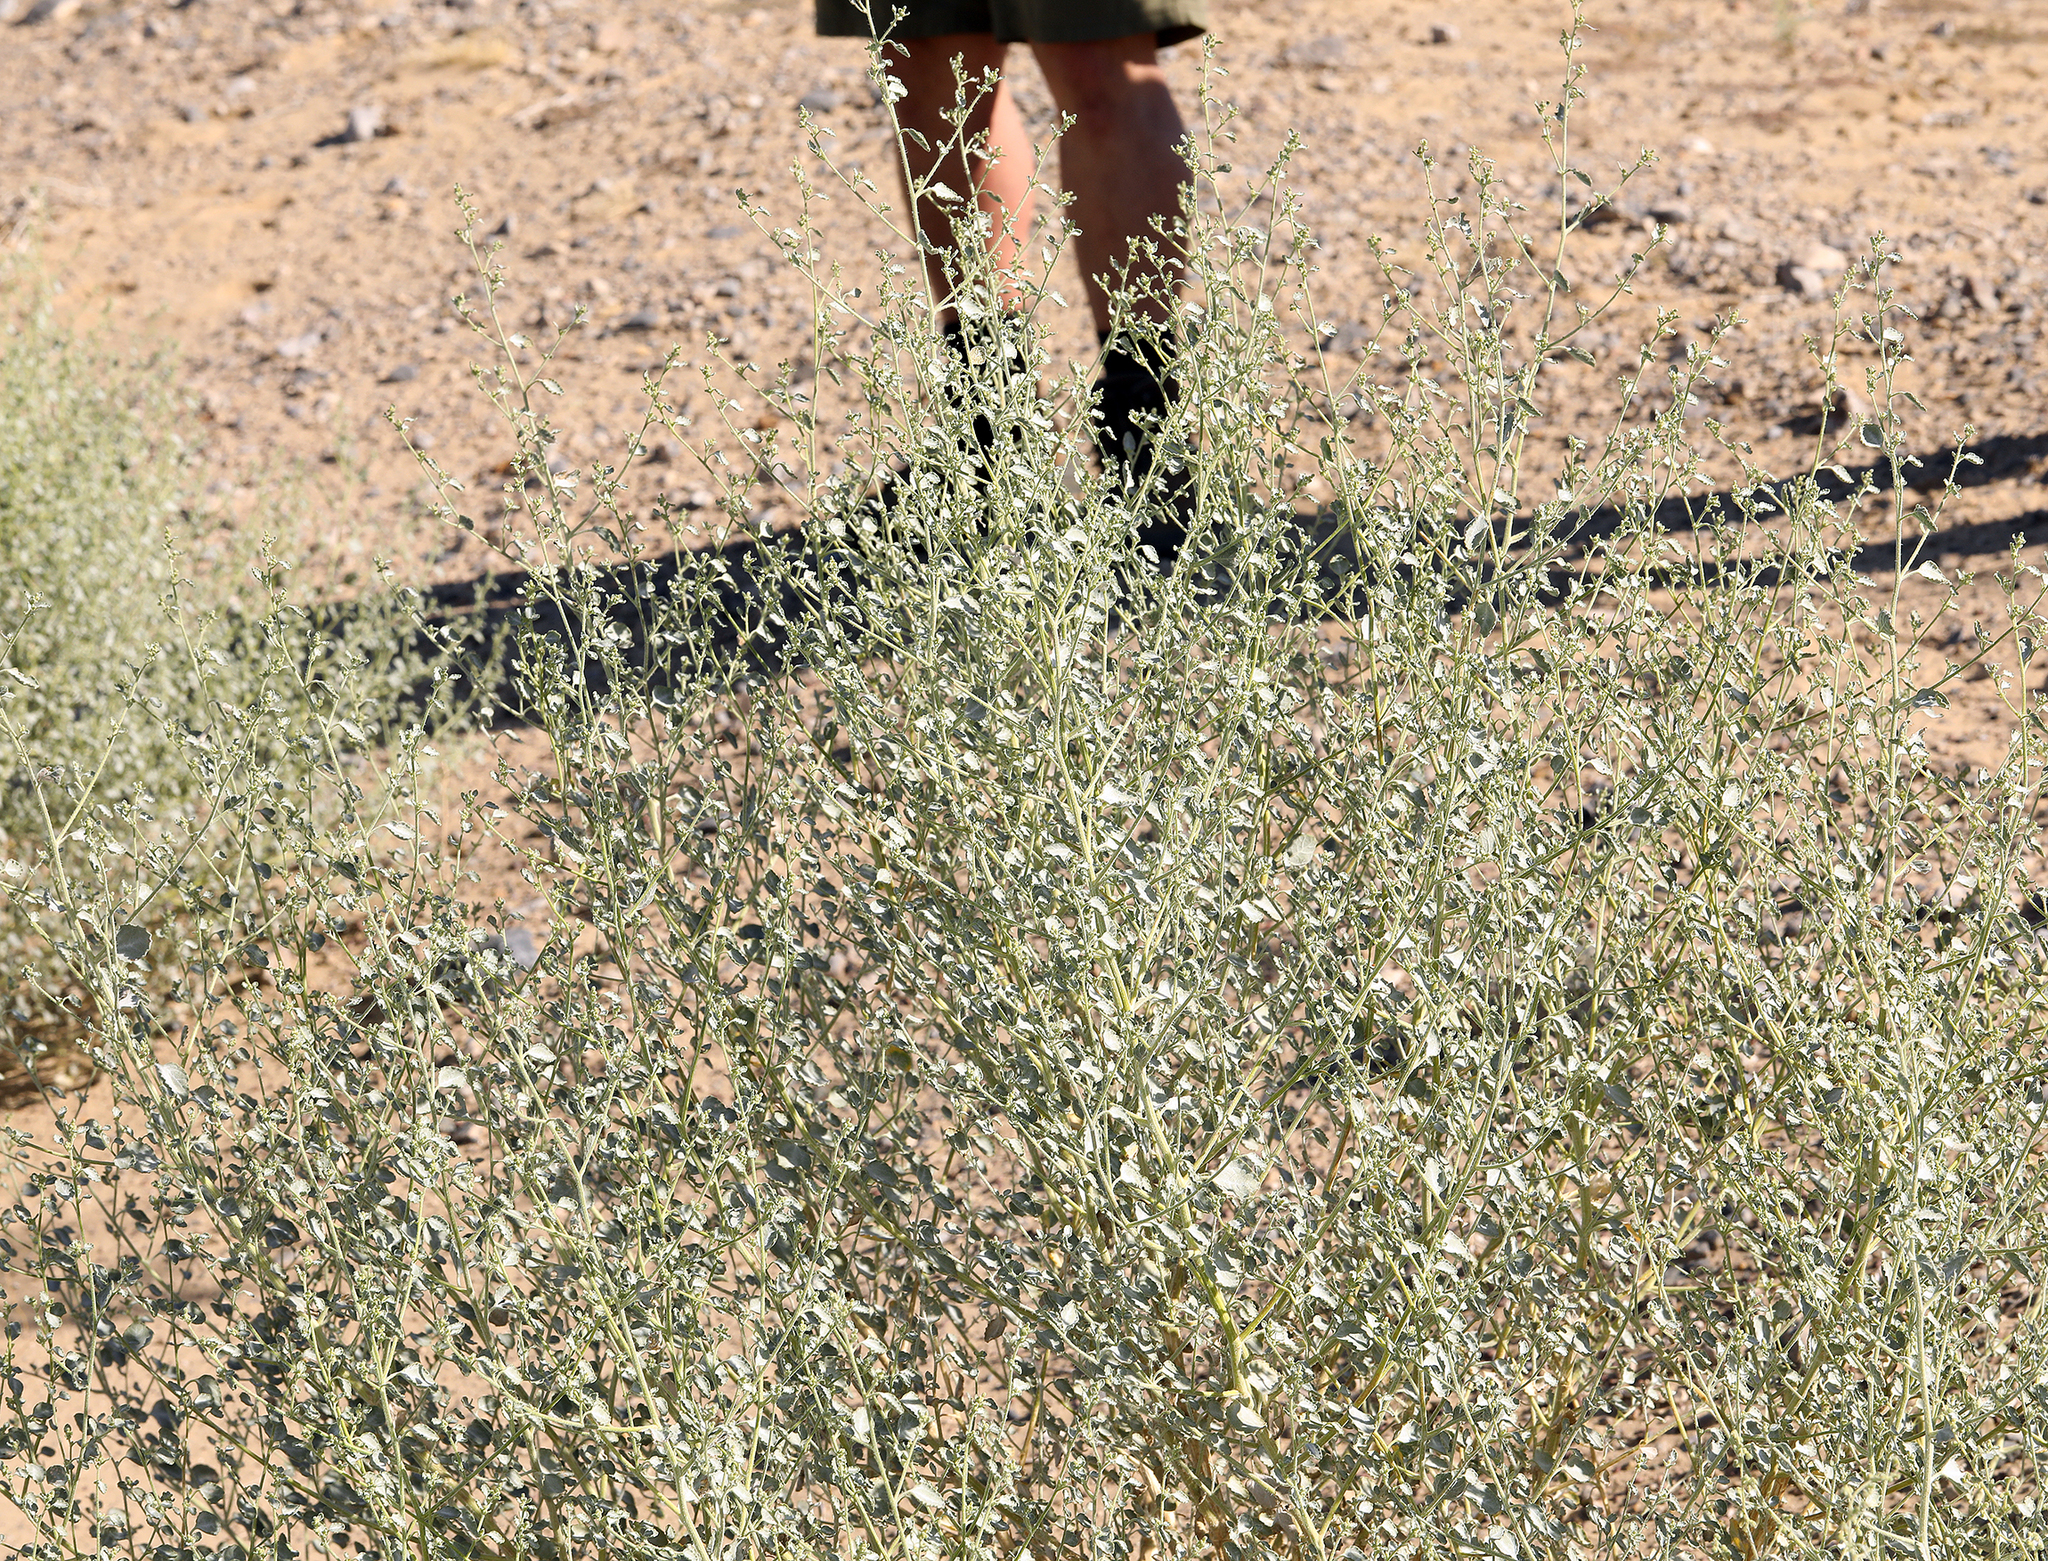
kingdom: Plantae
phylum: Tracheophyta
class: Magnoliopsida
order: Asterales
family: Asteraceae
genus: Dicoria
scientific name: Dicoria canescens
